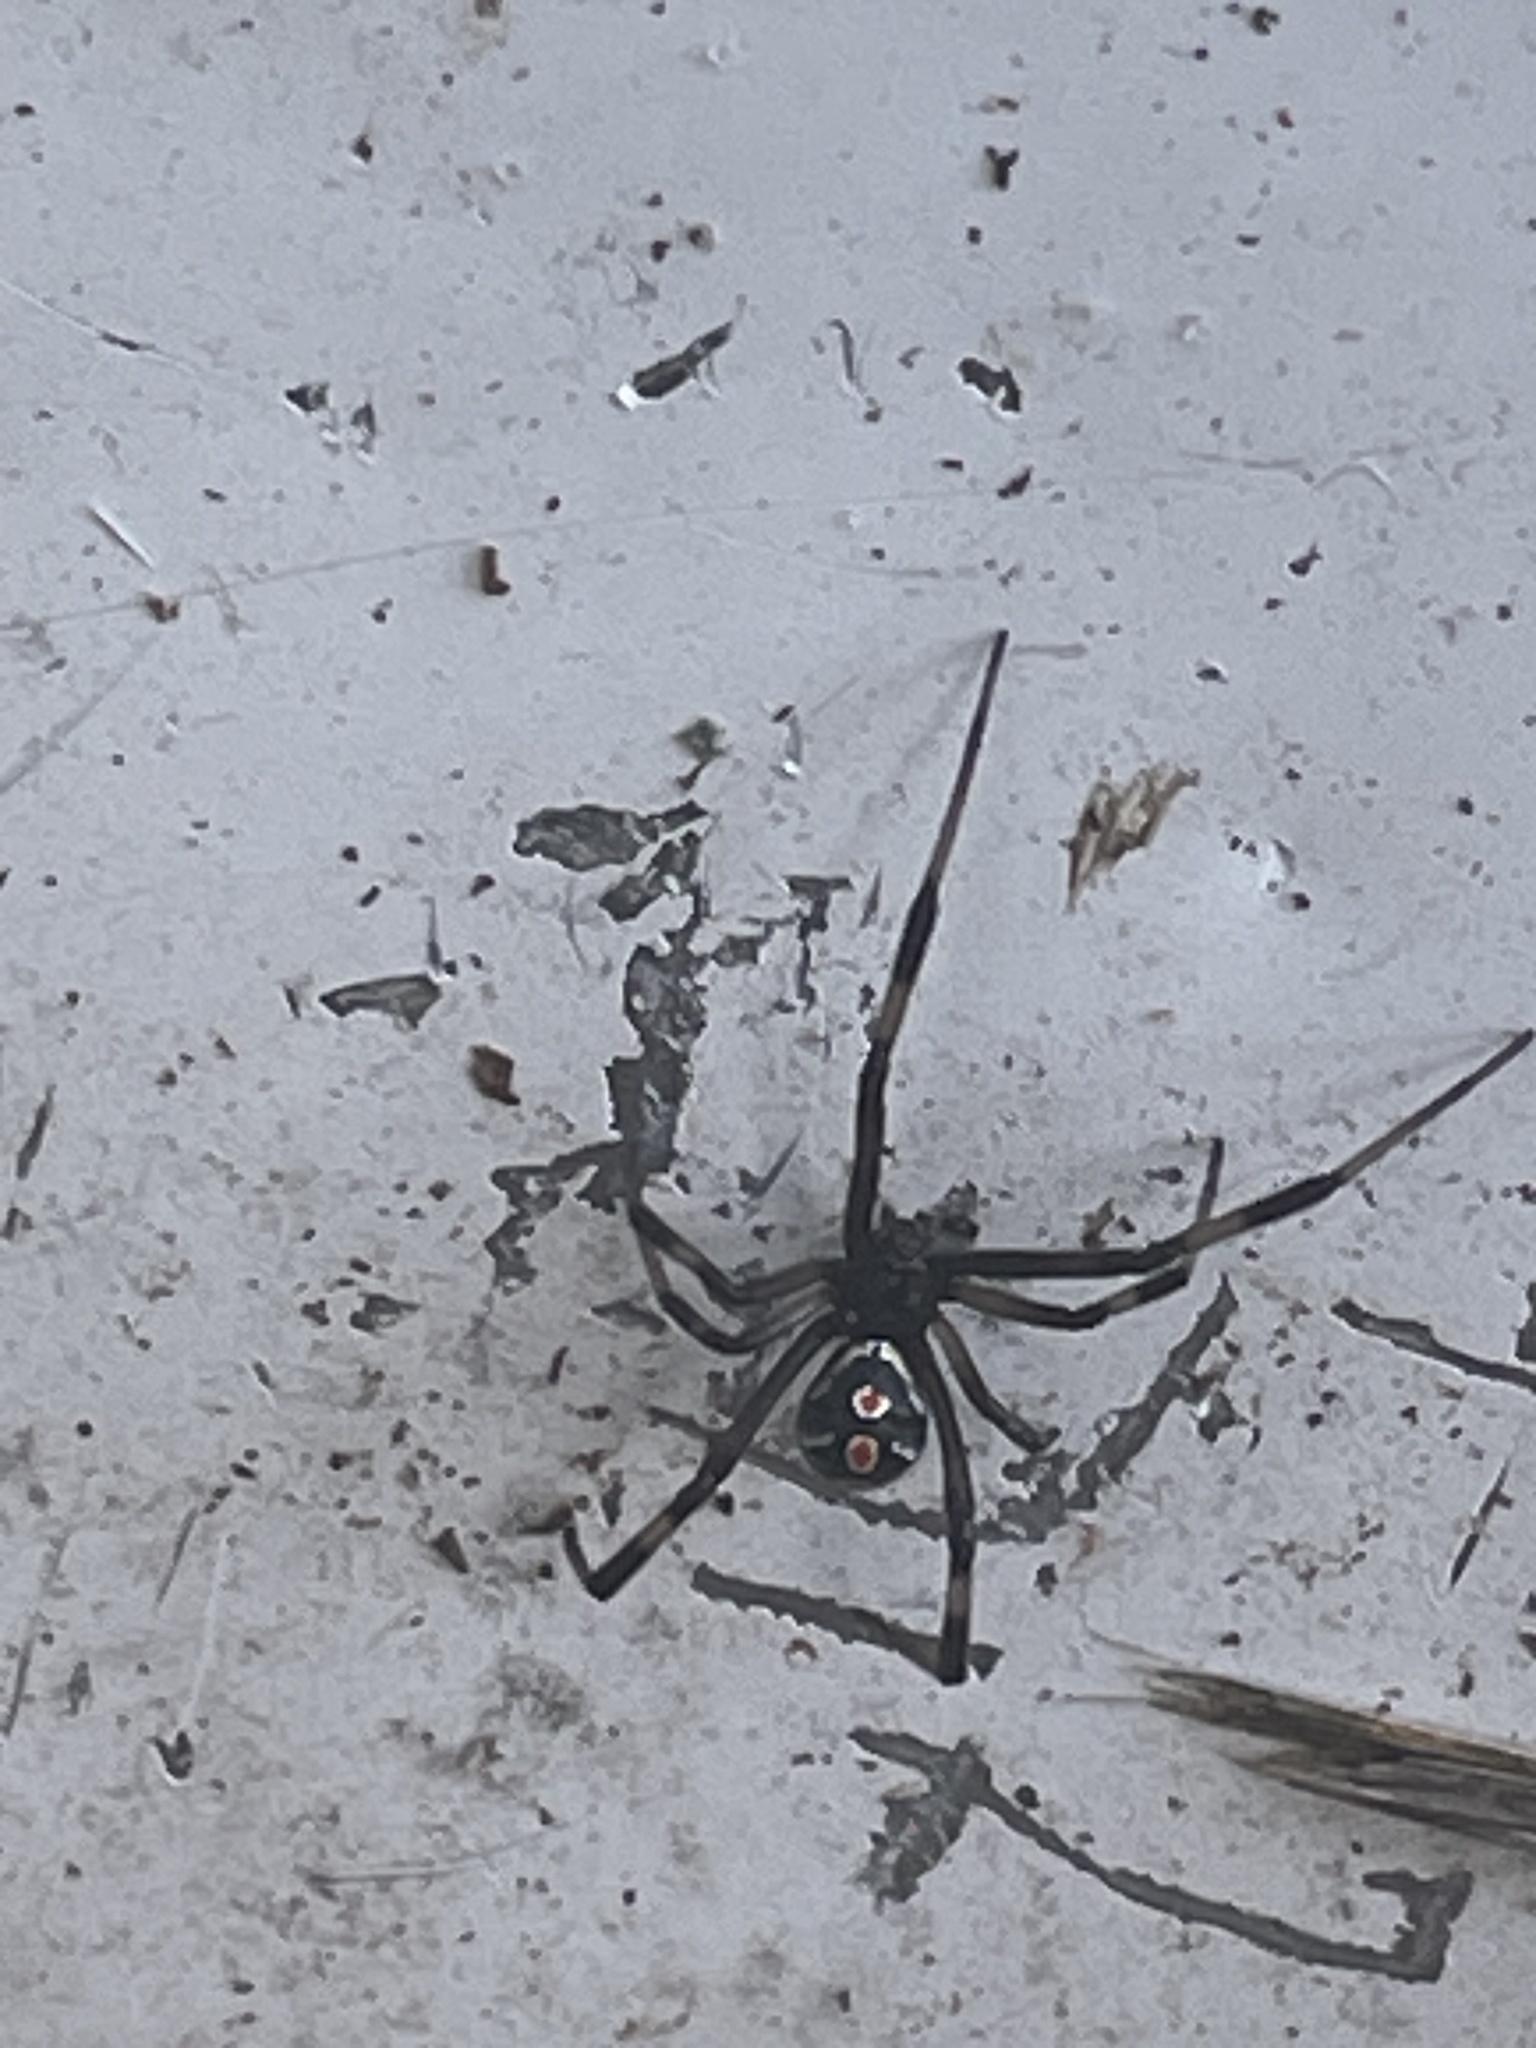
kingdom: Animalia
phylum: Arthropoda
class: Arachnida
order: Araneae
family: Theridiidae
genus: Latrodectus
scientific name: Latrodectus mactans
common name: Cobweb spiders
